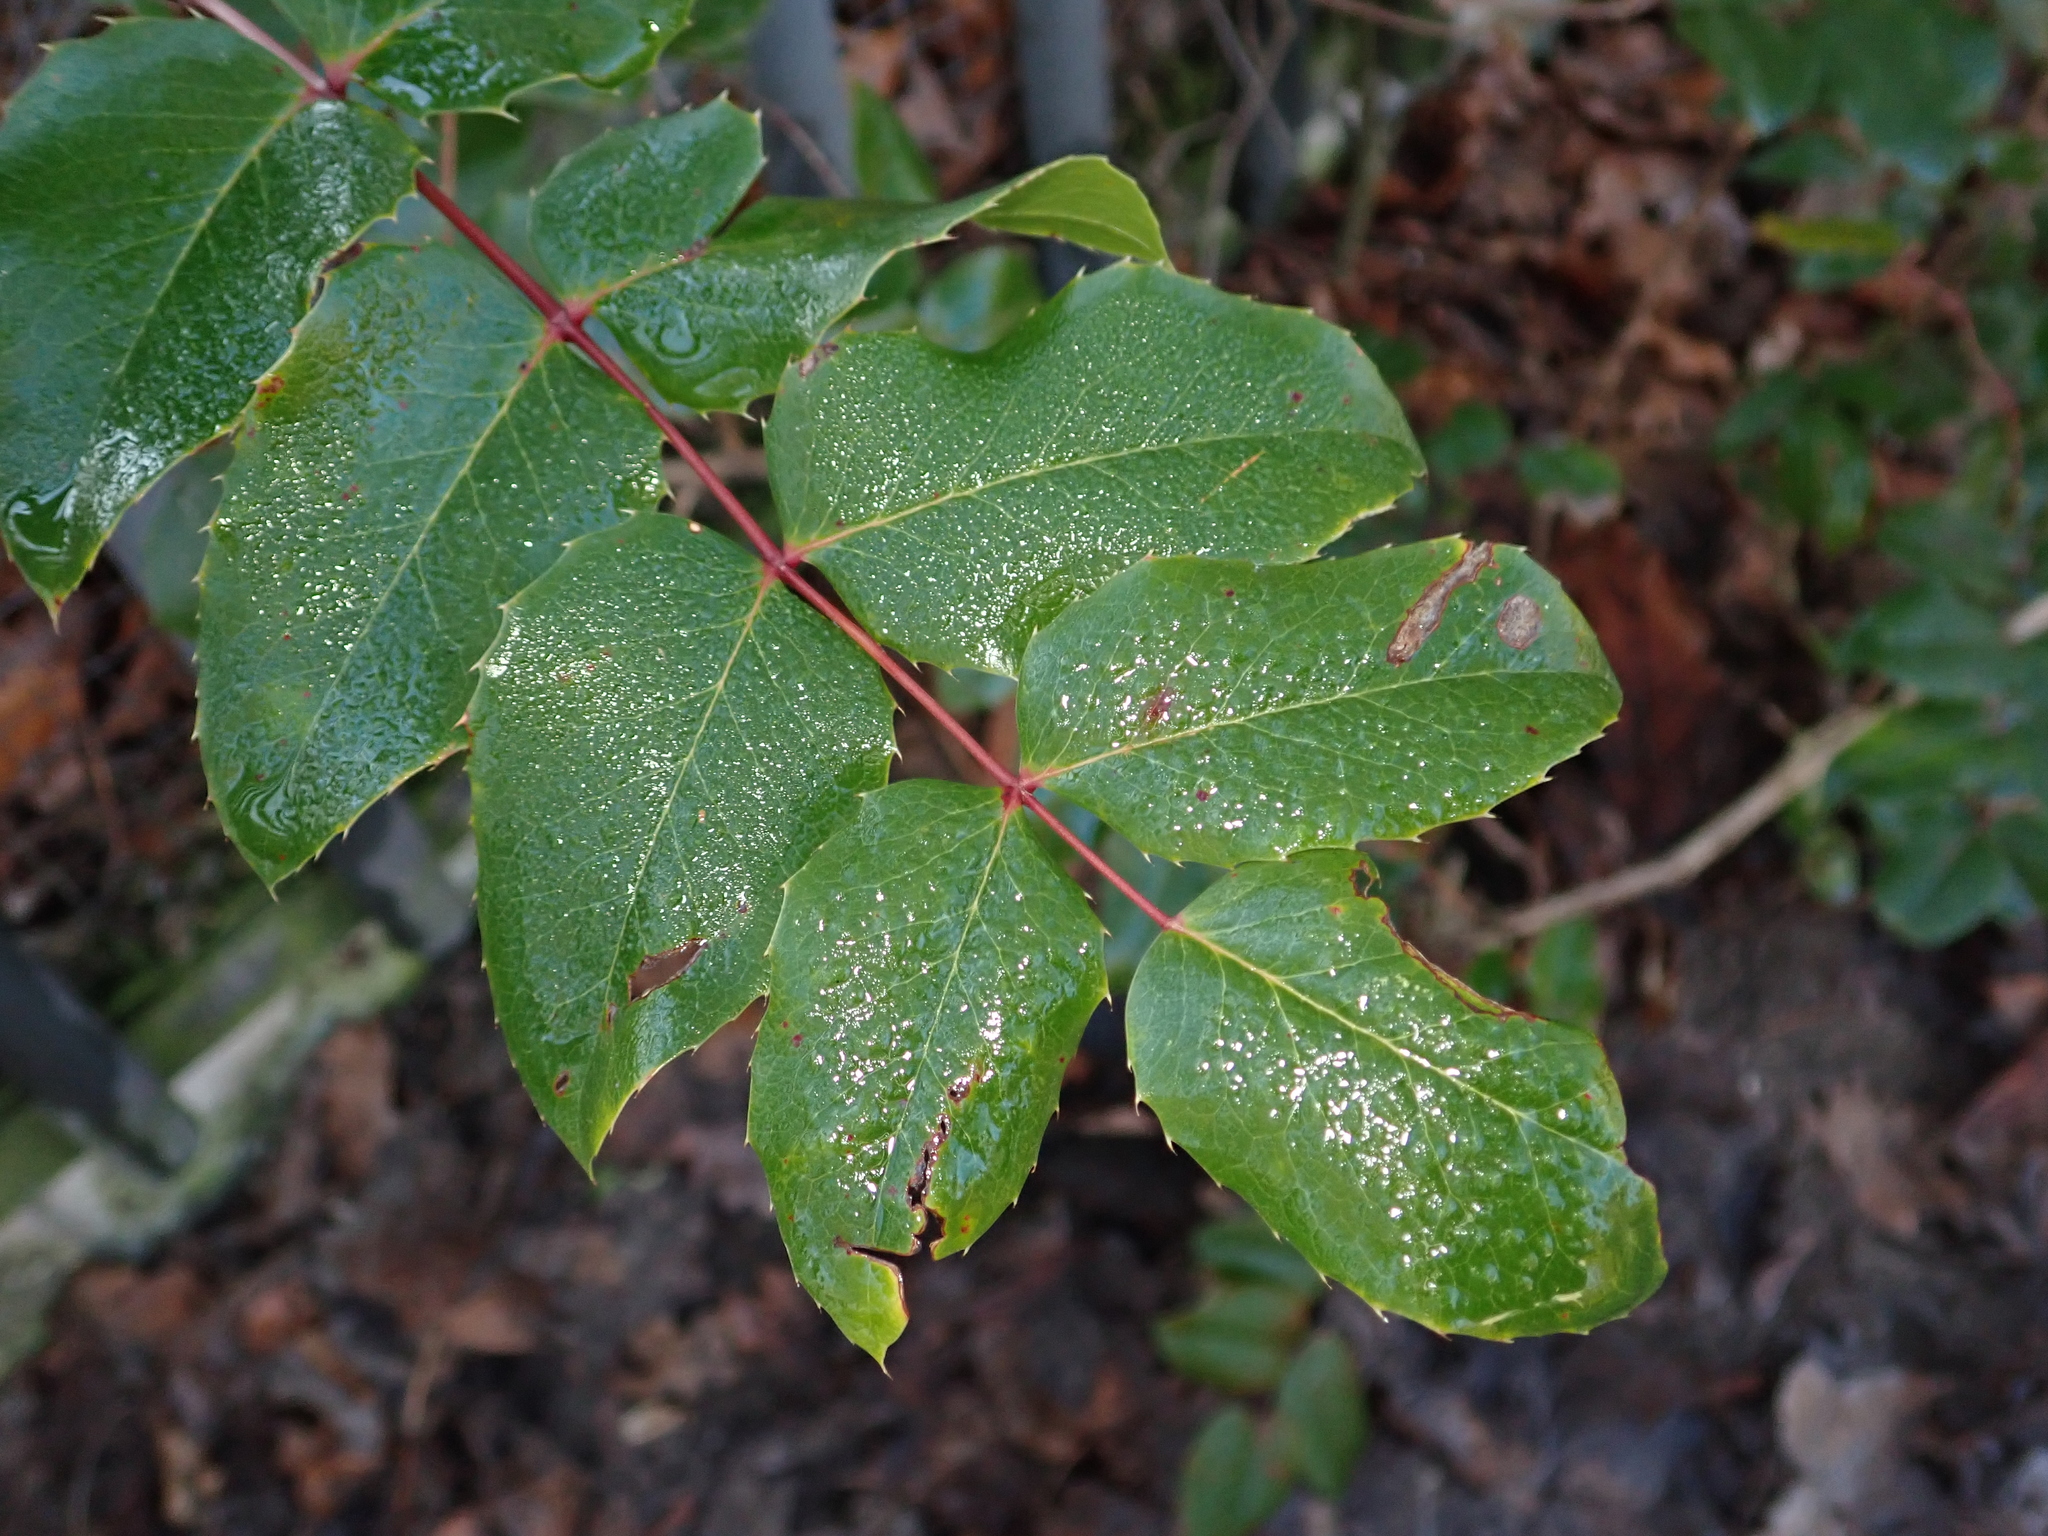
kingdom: Plantae
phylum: Tracheophyta
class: Magnoliopsida
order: Ranunculales
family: Berberidaceae
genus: Mahonia
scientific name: Mahonia aquifolium
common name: Oregon-grape
